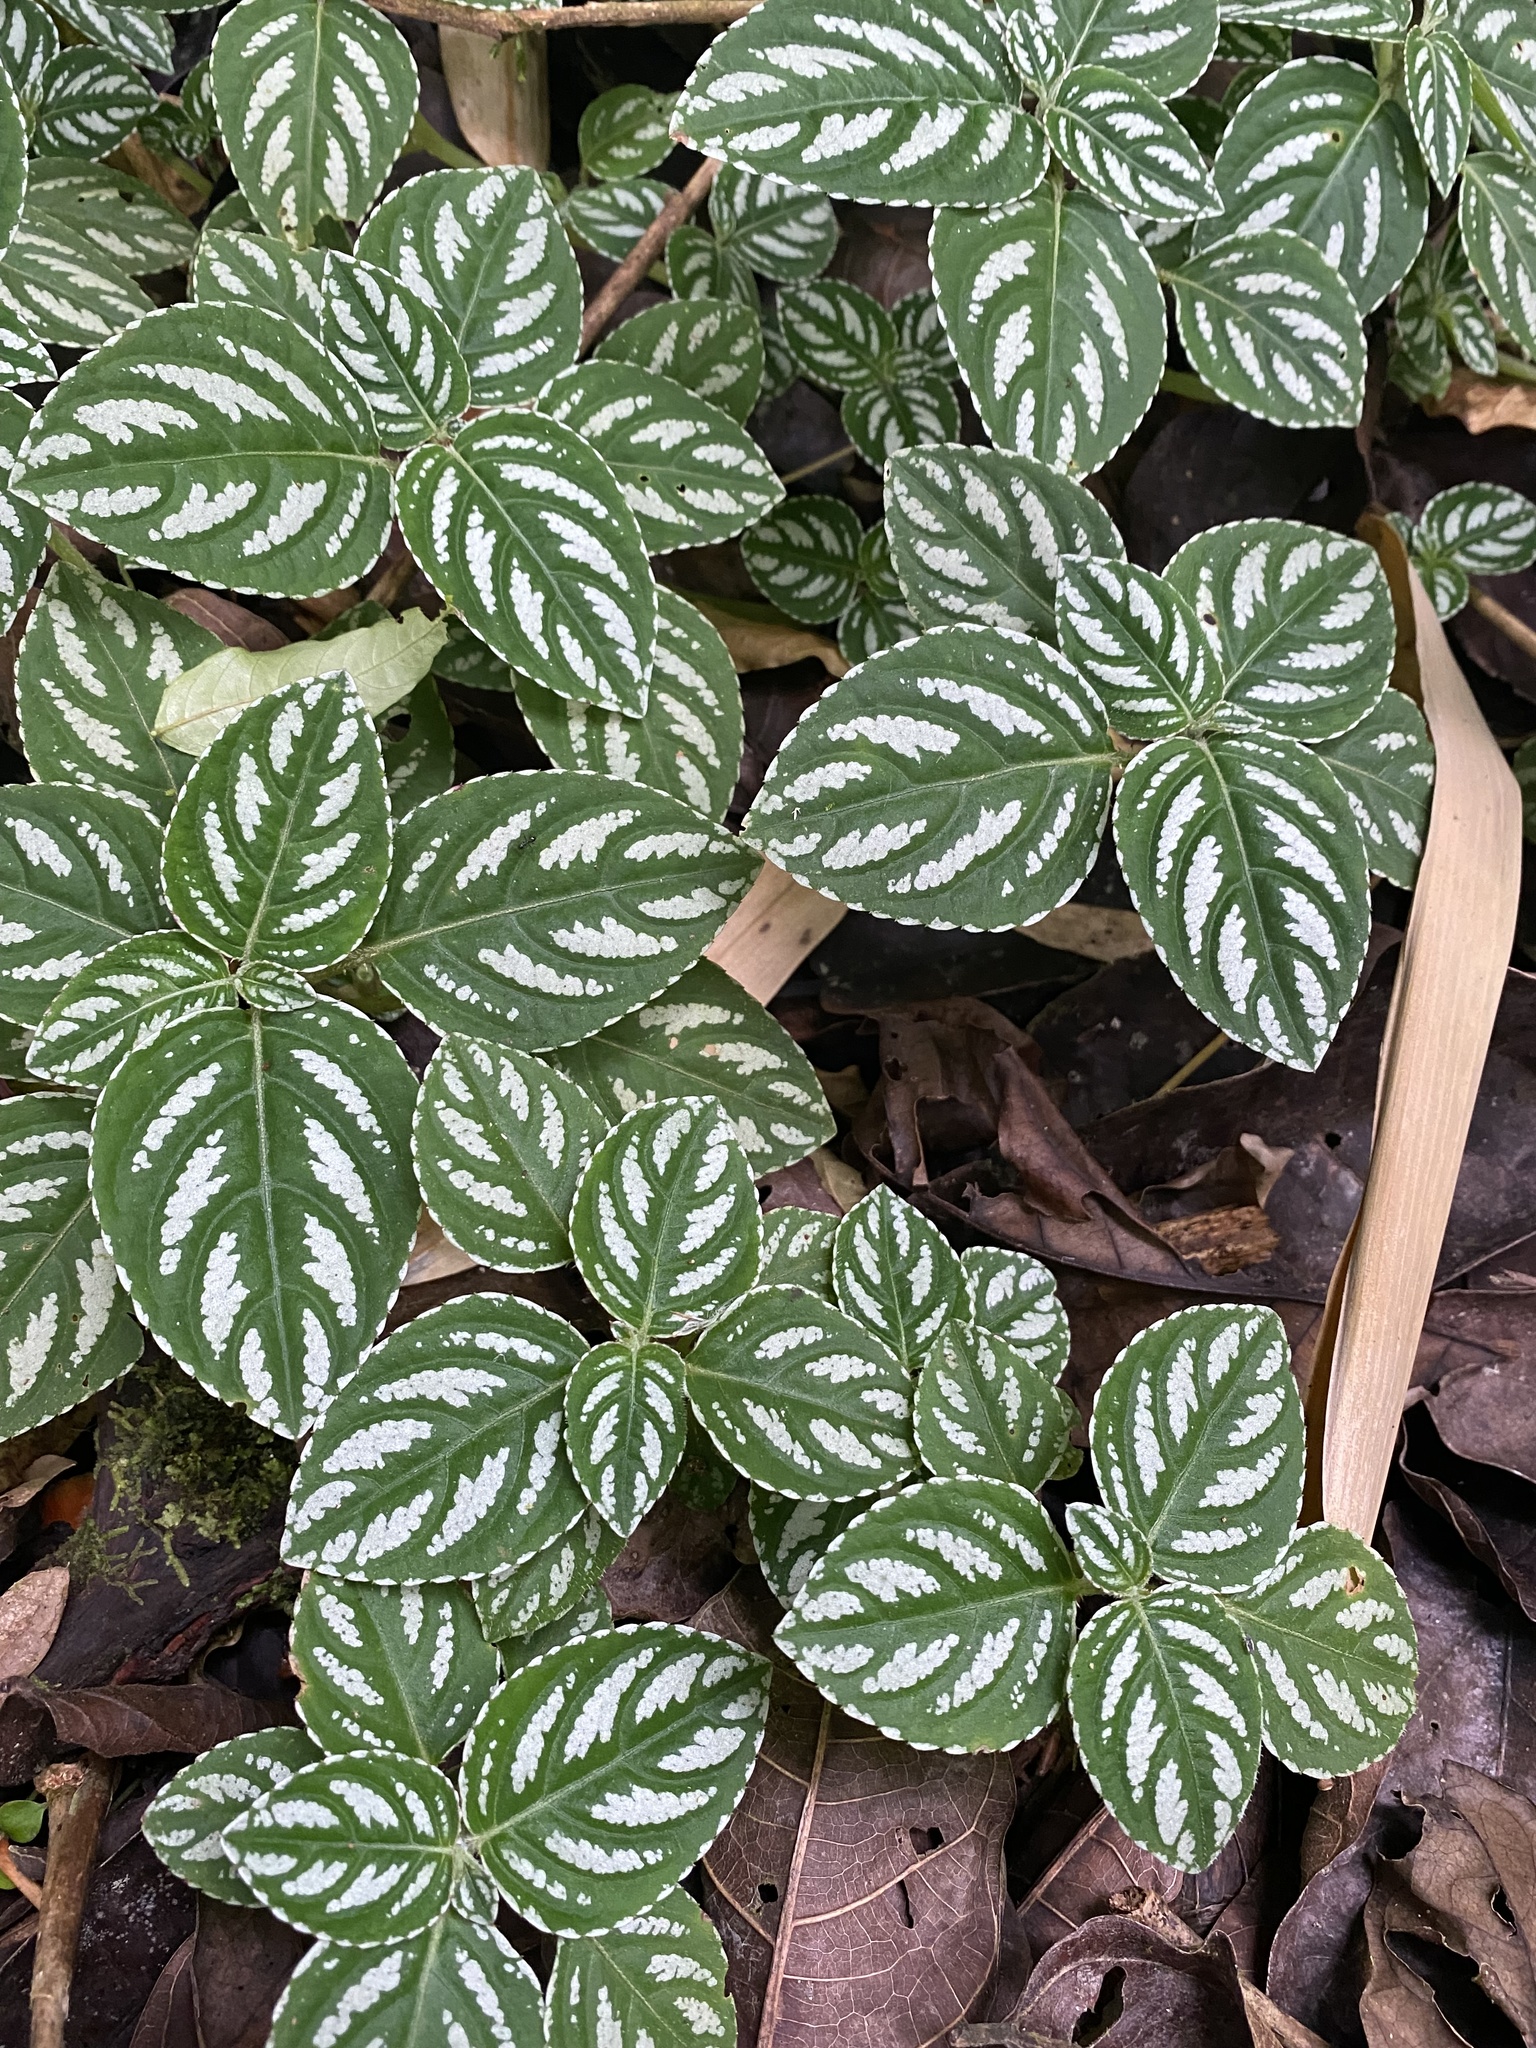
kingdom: Plantae
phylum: Tracheophyta
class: Magnoliopsida
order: Ericales
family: Balsaminaceae
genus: Impatiens
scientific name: Impatiens marianae
